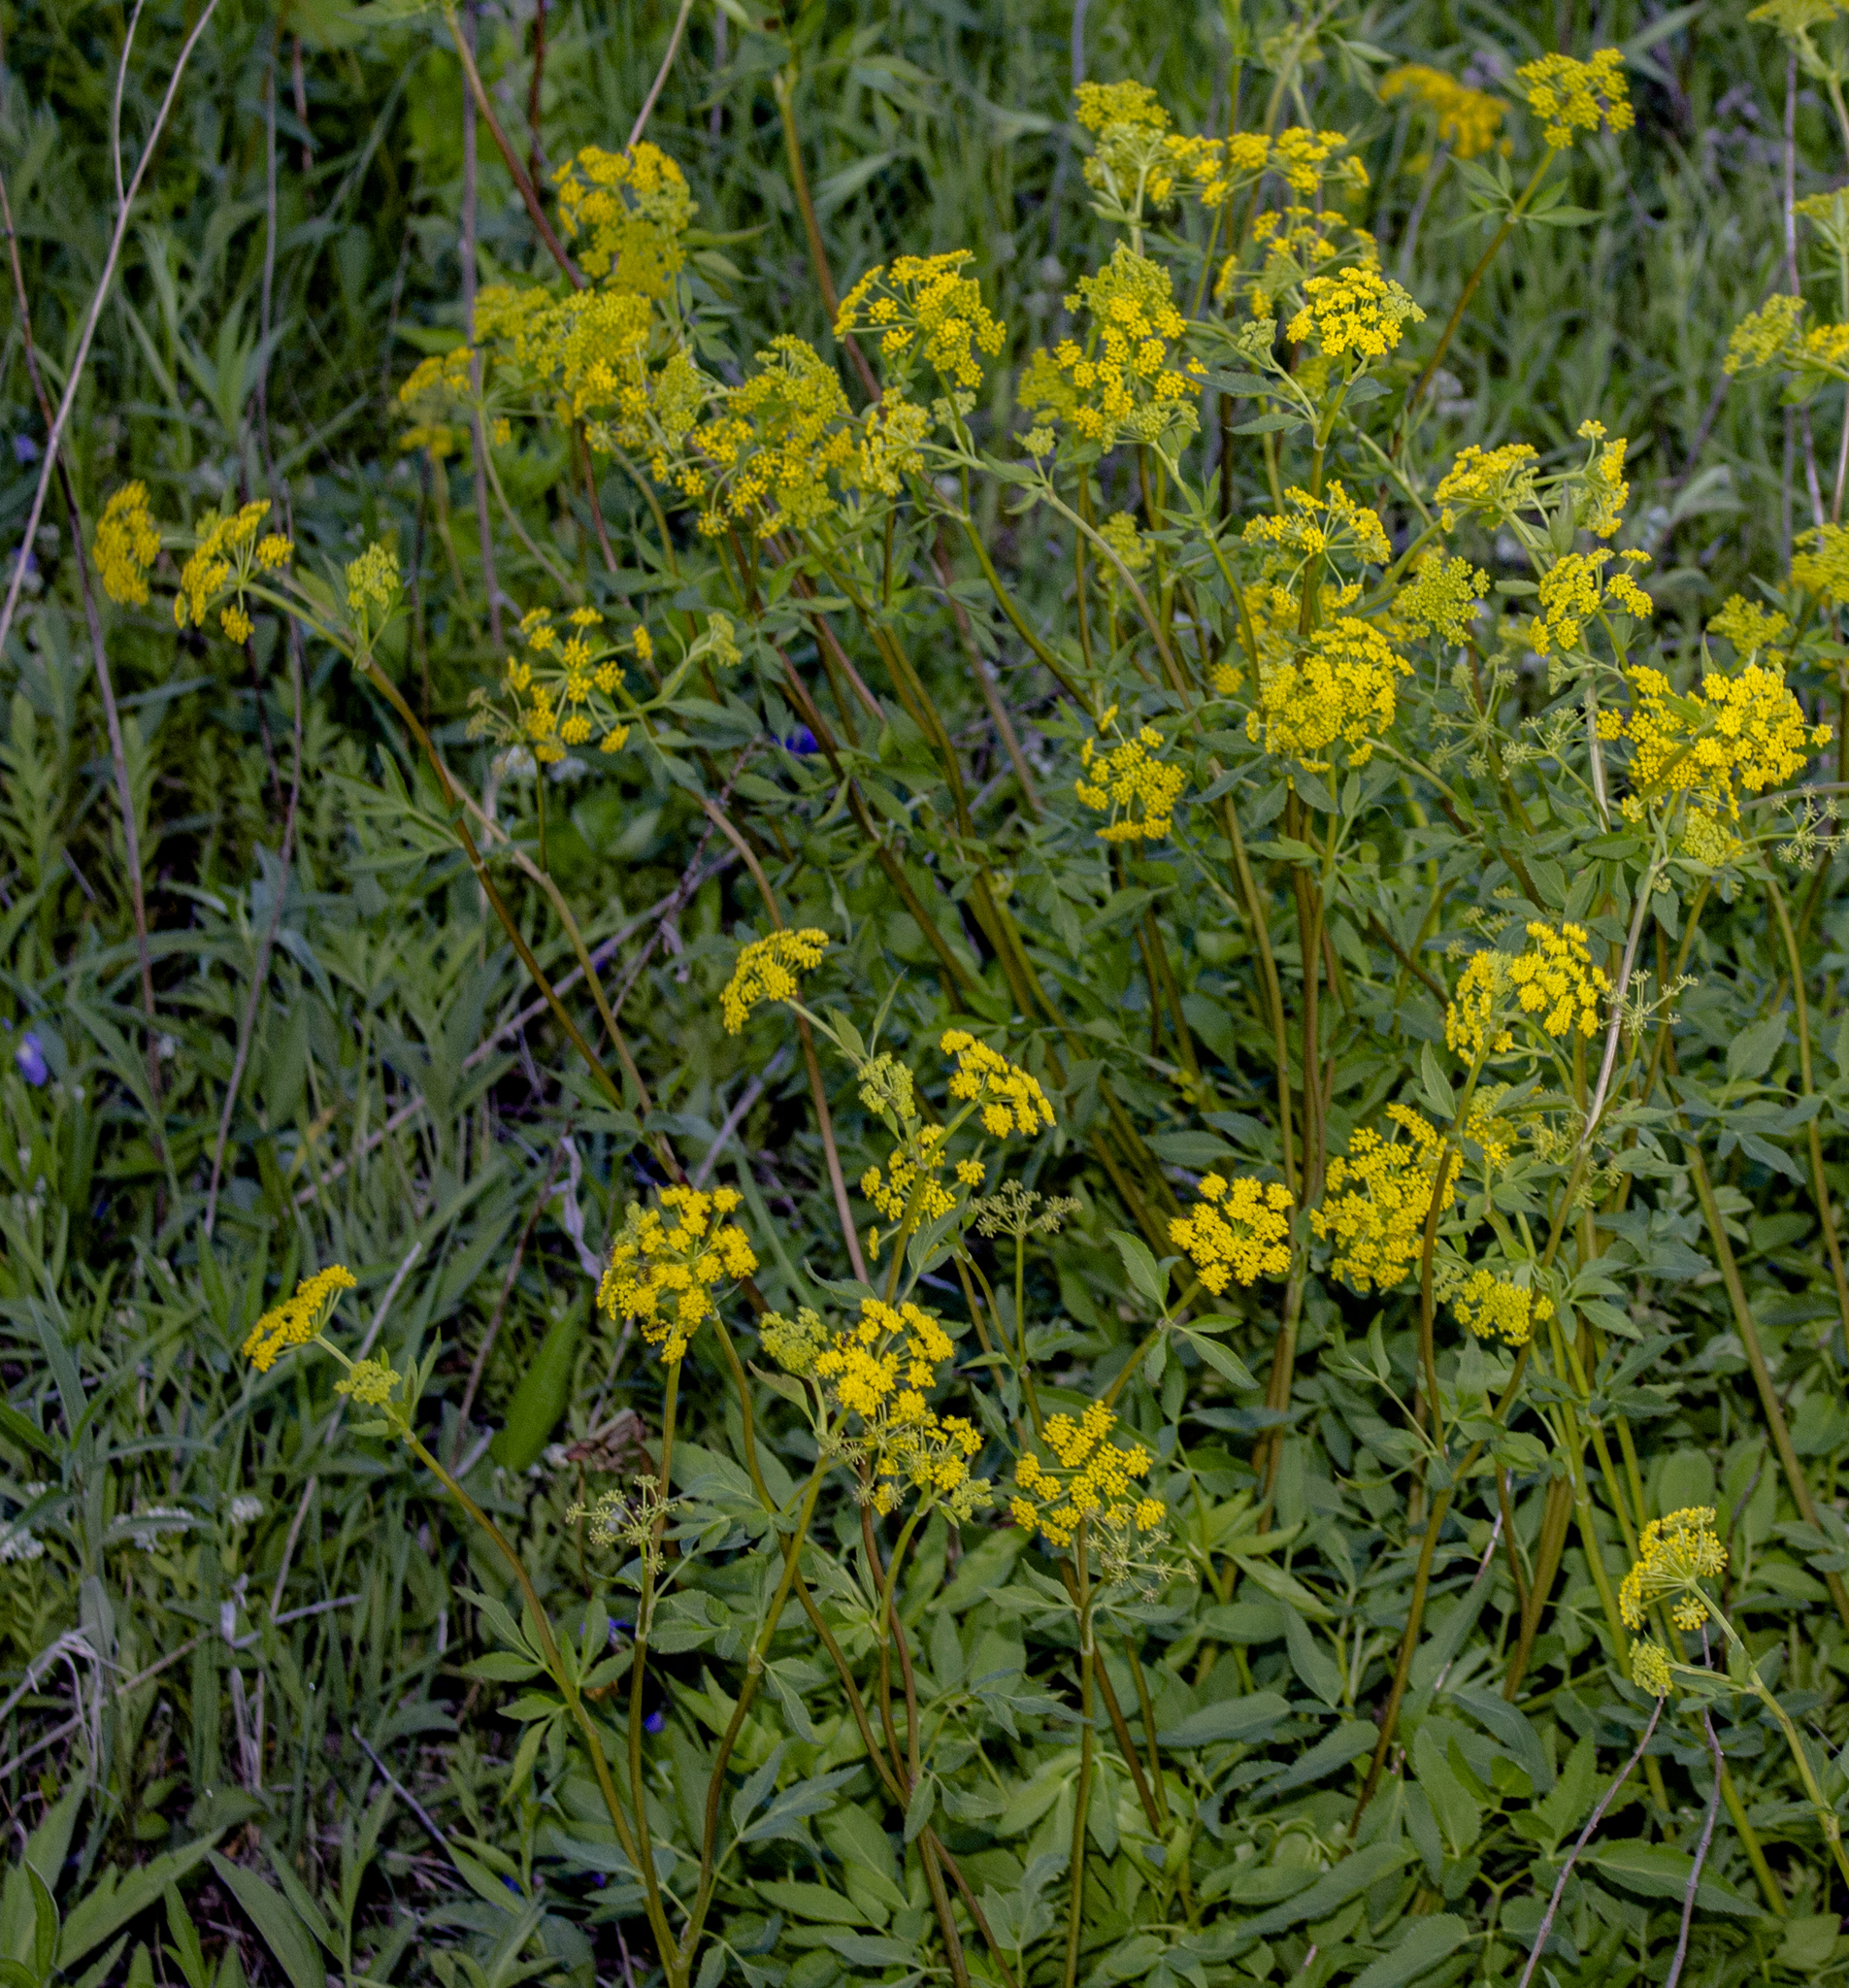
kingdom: Plantae
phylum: Tracheophyta
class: Magnoliopsida
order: Apiales
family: Apiaceae
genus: Zizia
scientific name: Zizia aurea
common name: Golden alexanders
